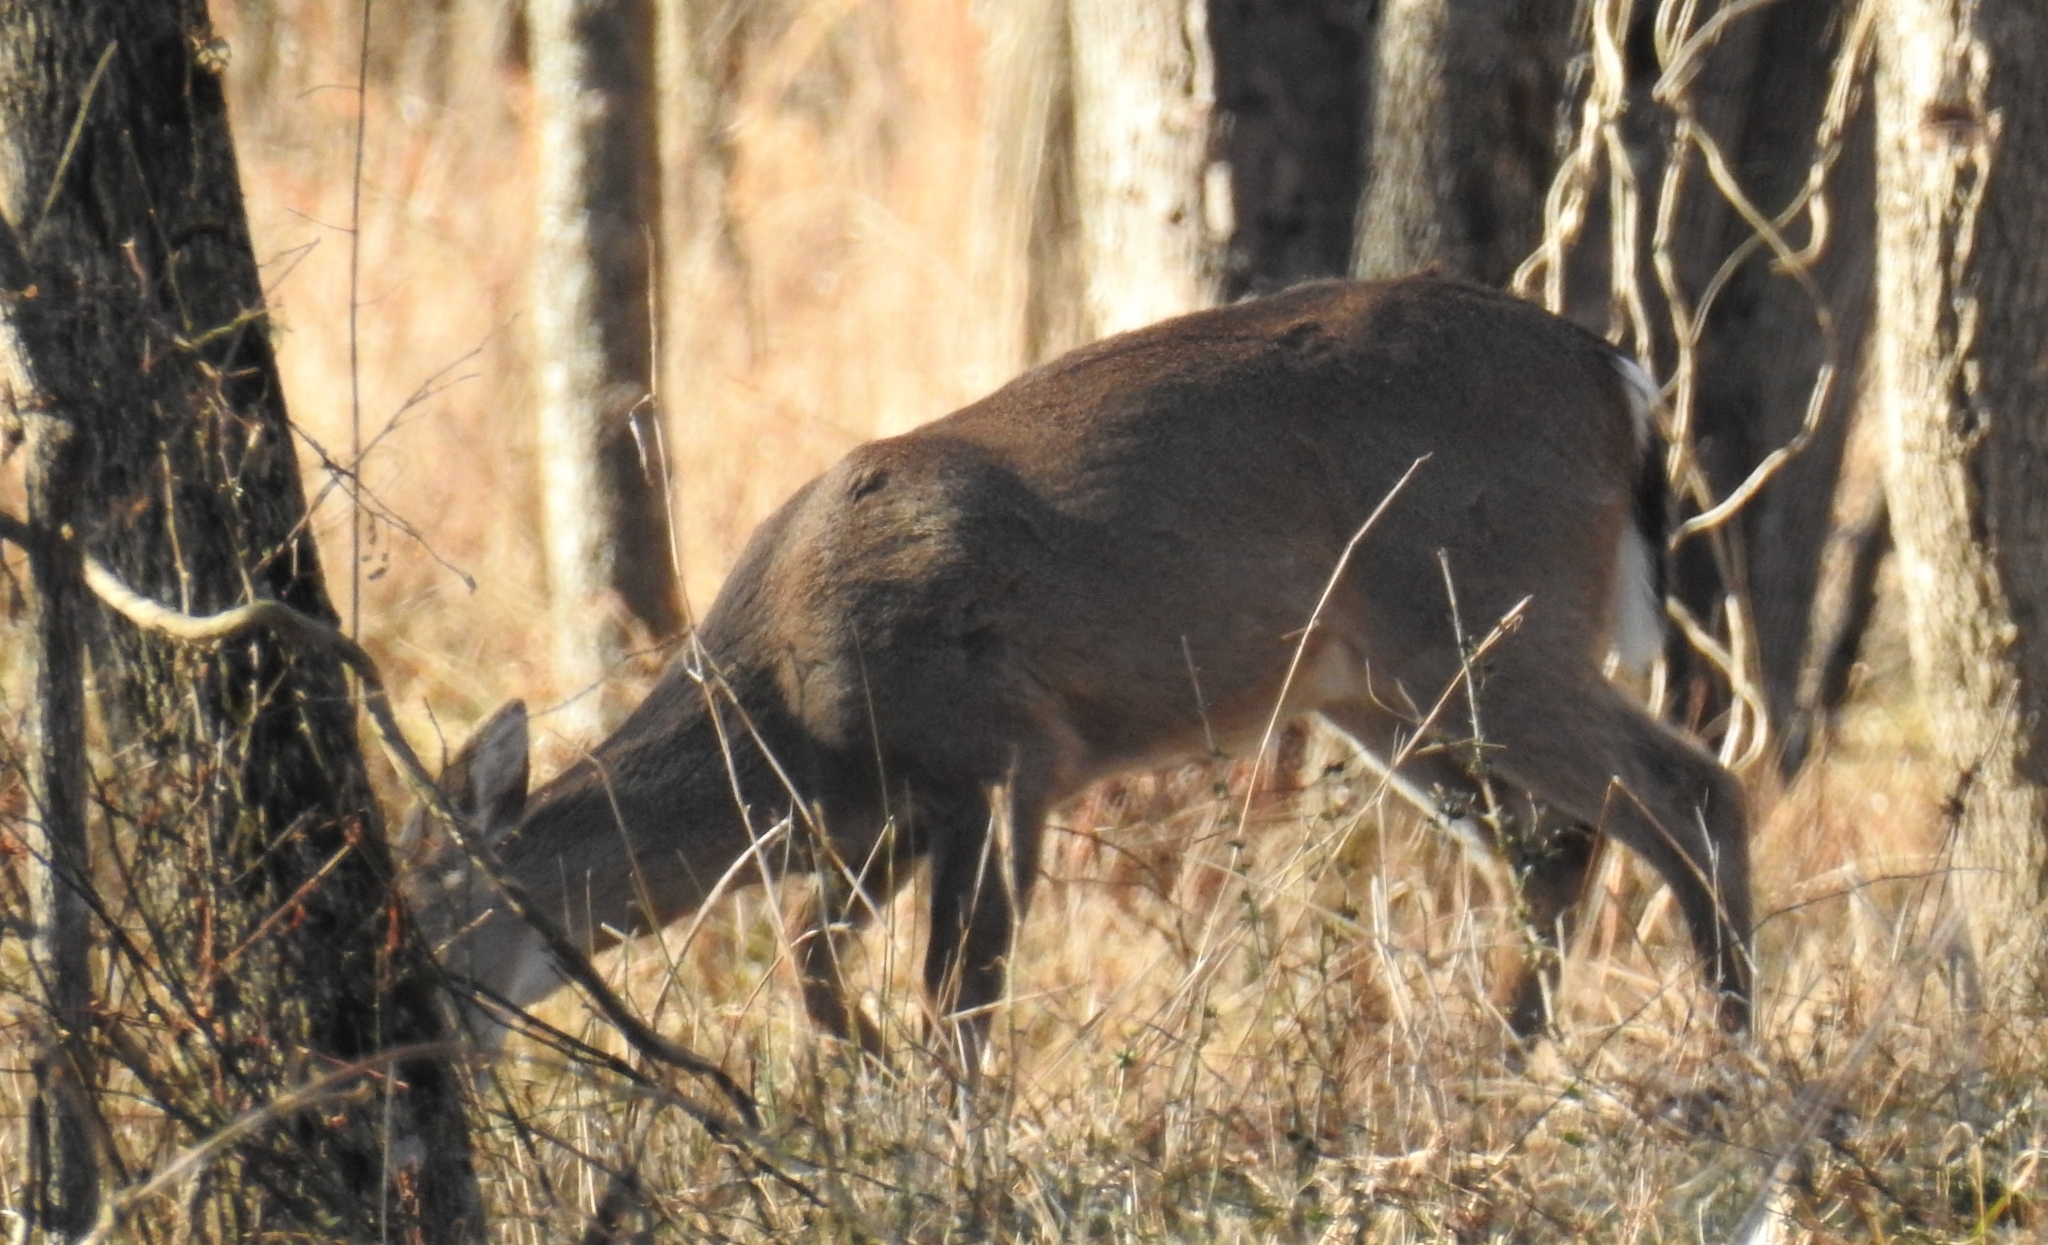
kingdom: Animalia
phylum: Chordata
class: Mammalia
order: Artiodactyla
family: Cervidae
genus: Odocoileus
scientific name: Odocoileus virginianus
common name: White-tailed deer
